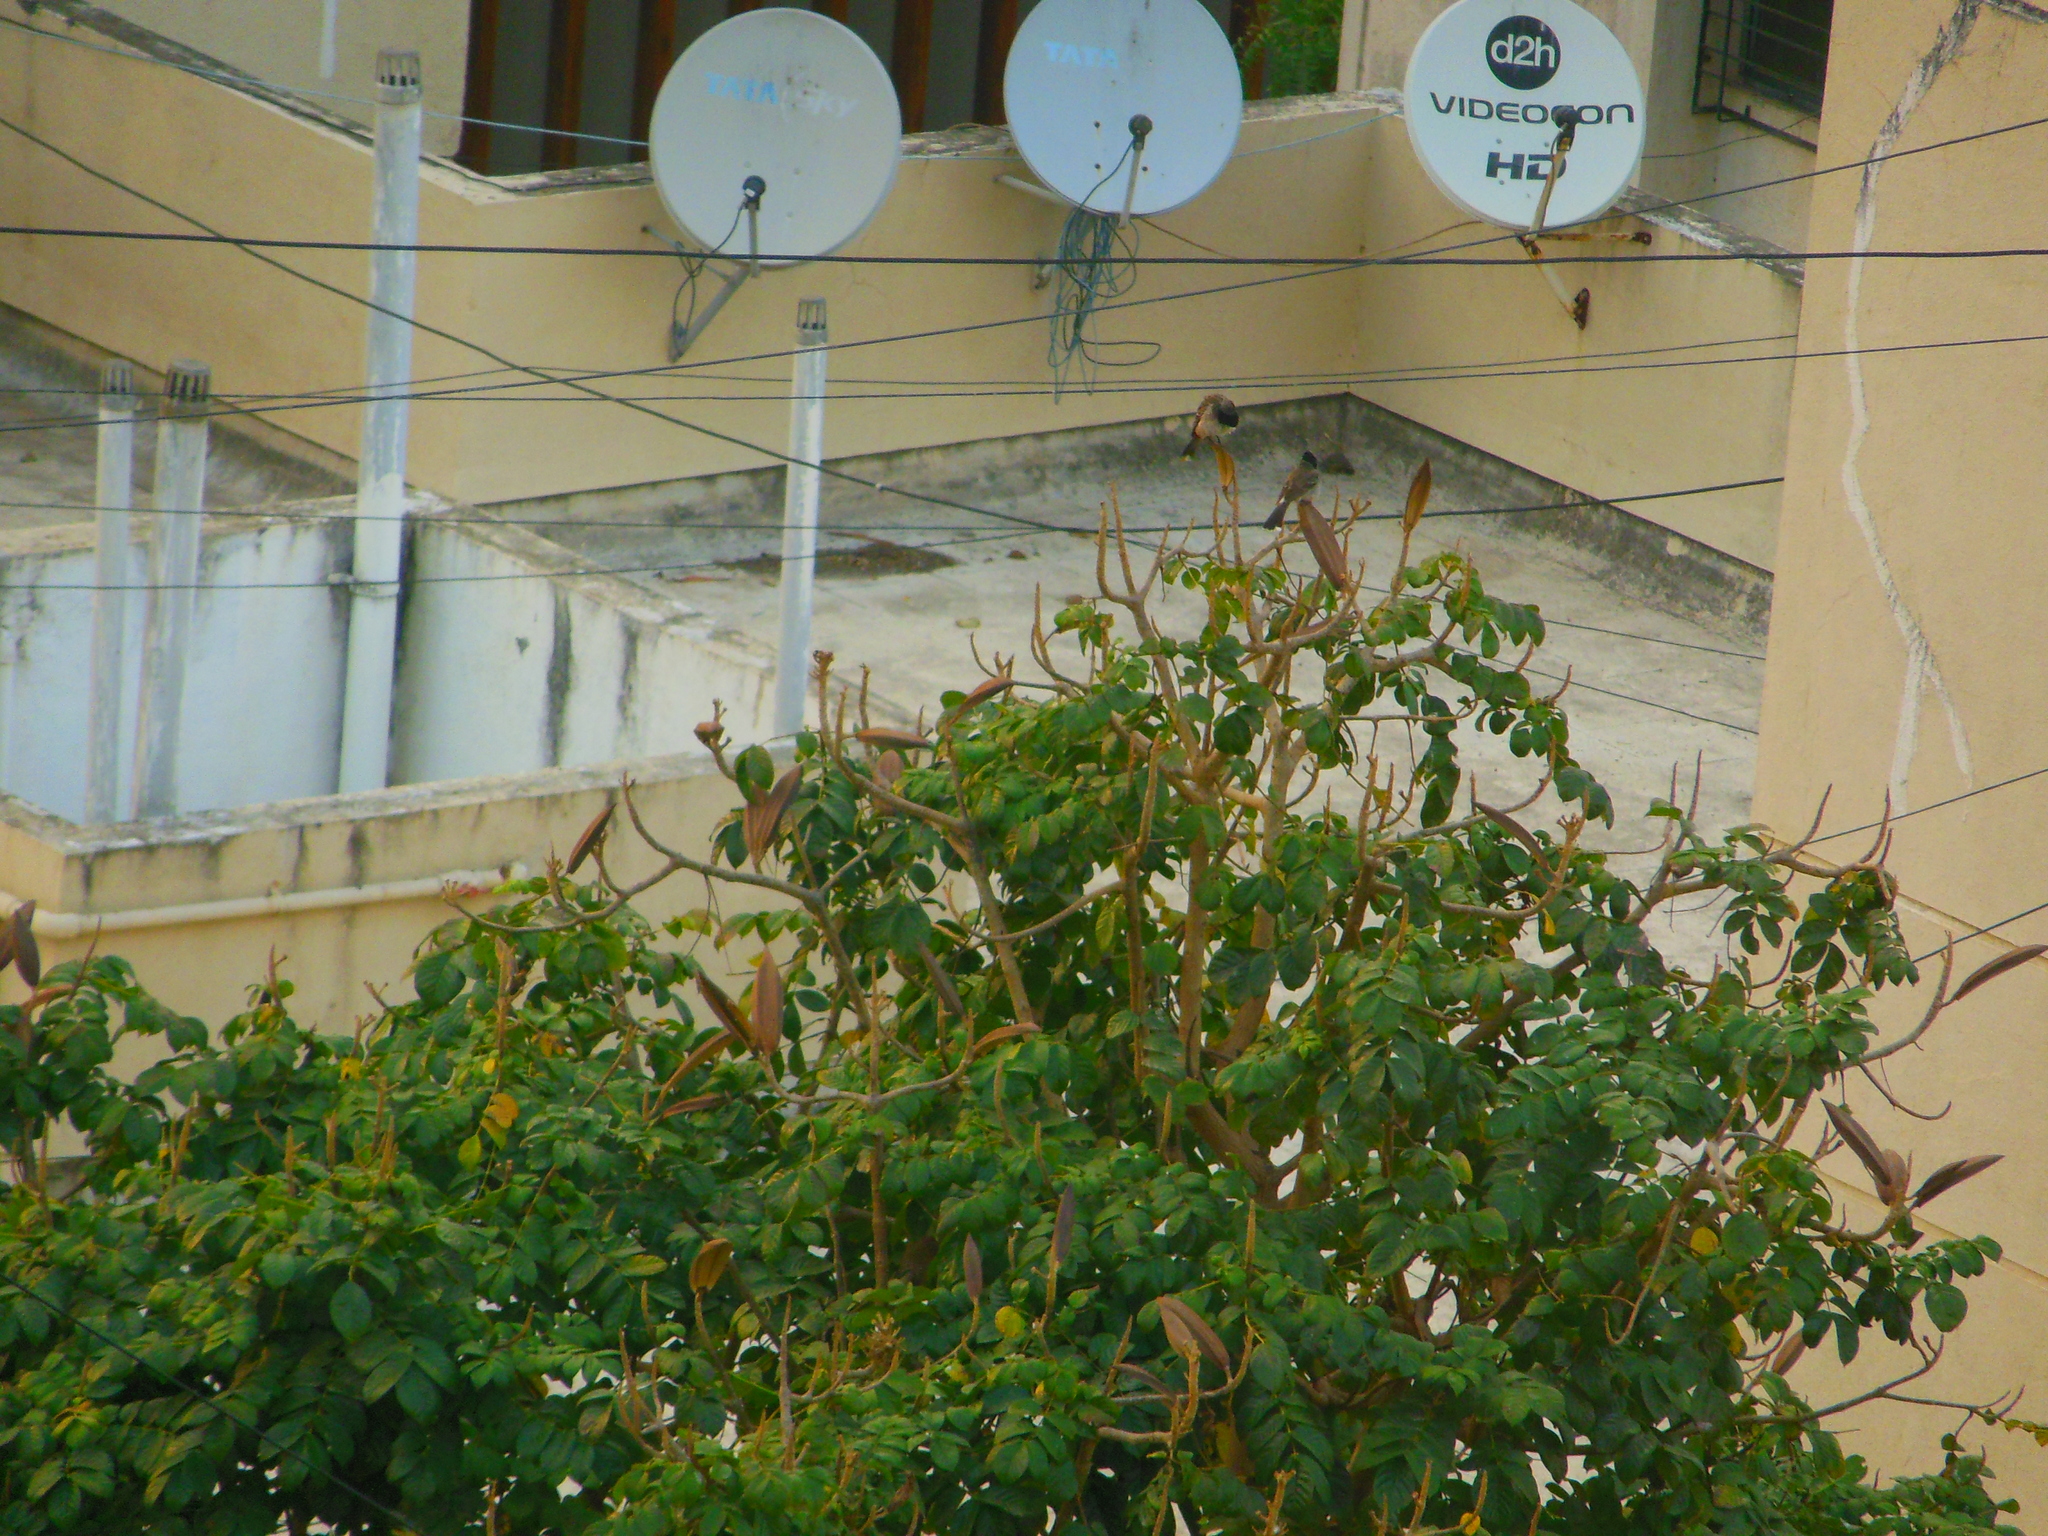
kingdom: Animalia
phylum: Chordata
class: Aves
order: Passeriformes
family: Pycnonotidae
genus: Pycnonotus
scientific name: Pycnonotus cafer
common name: Red-vented bulbul
